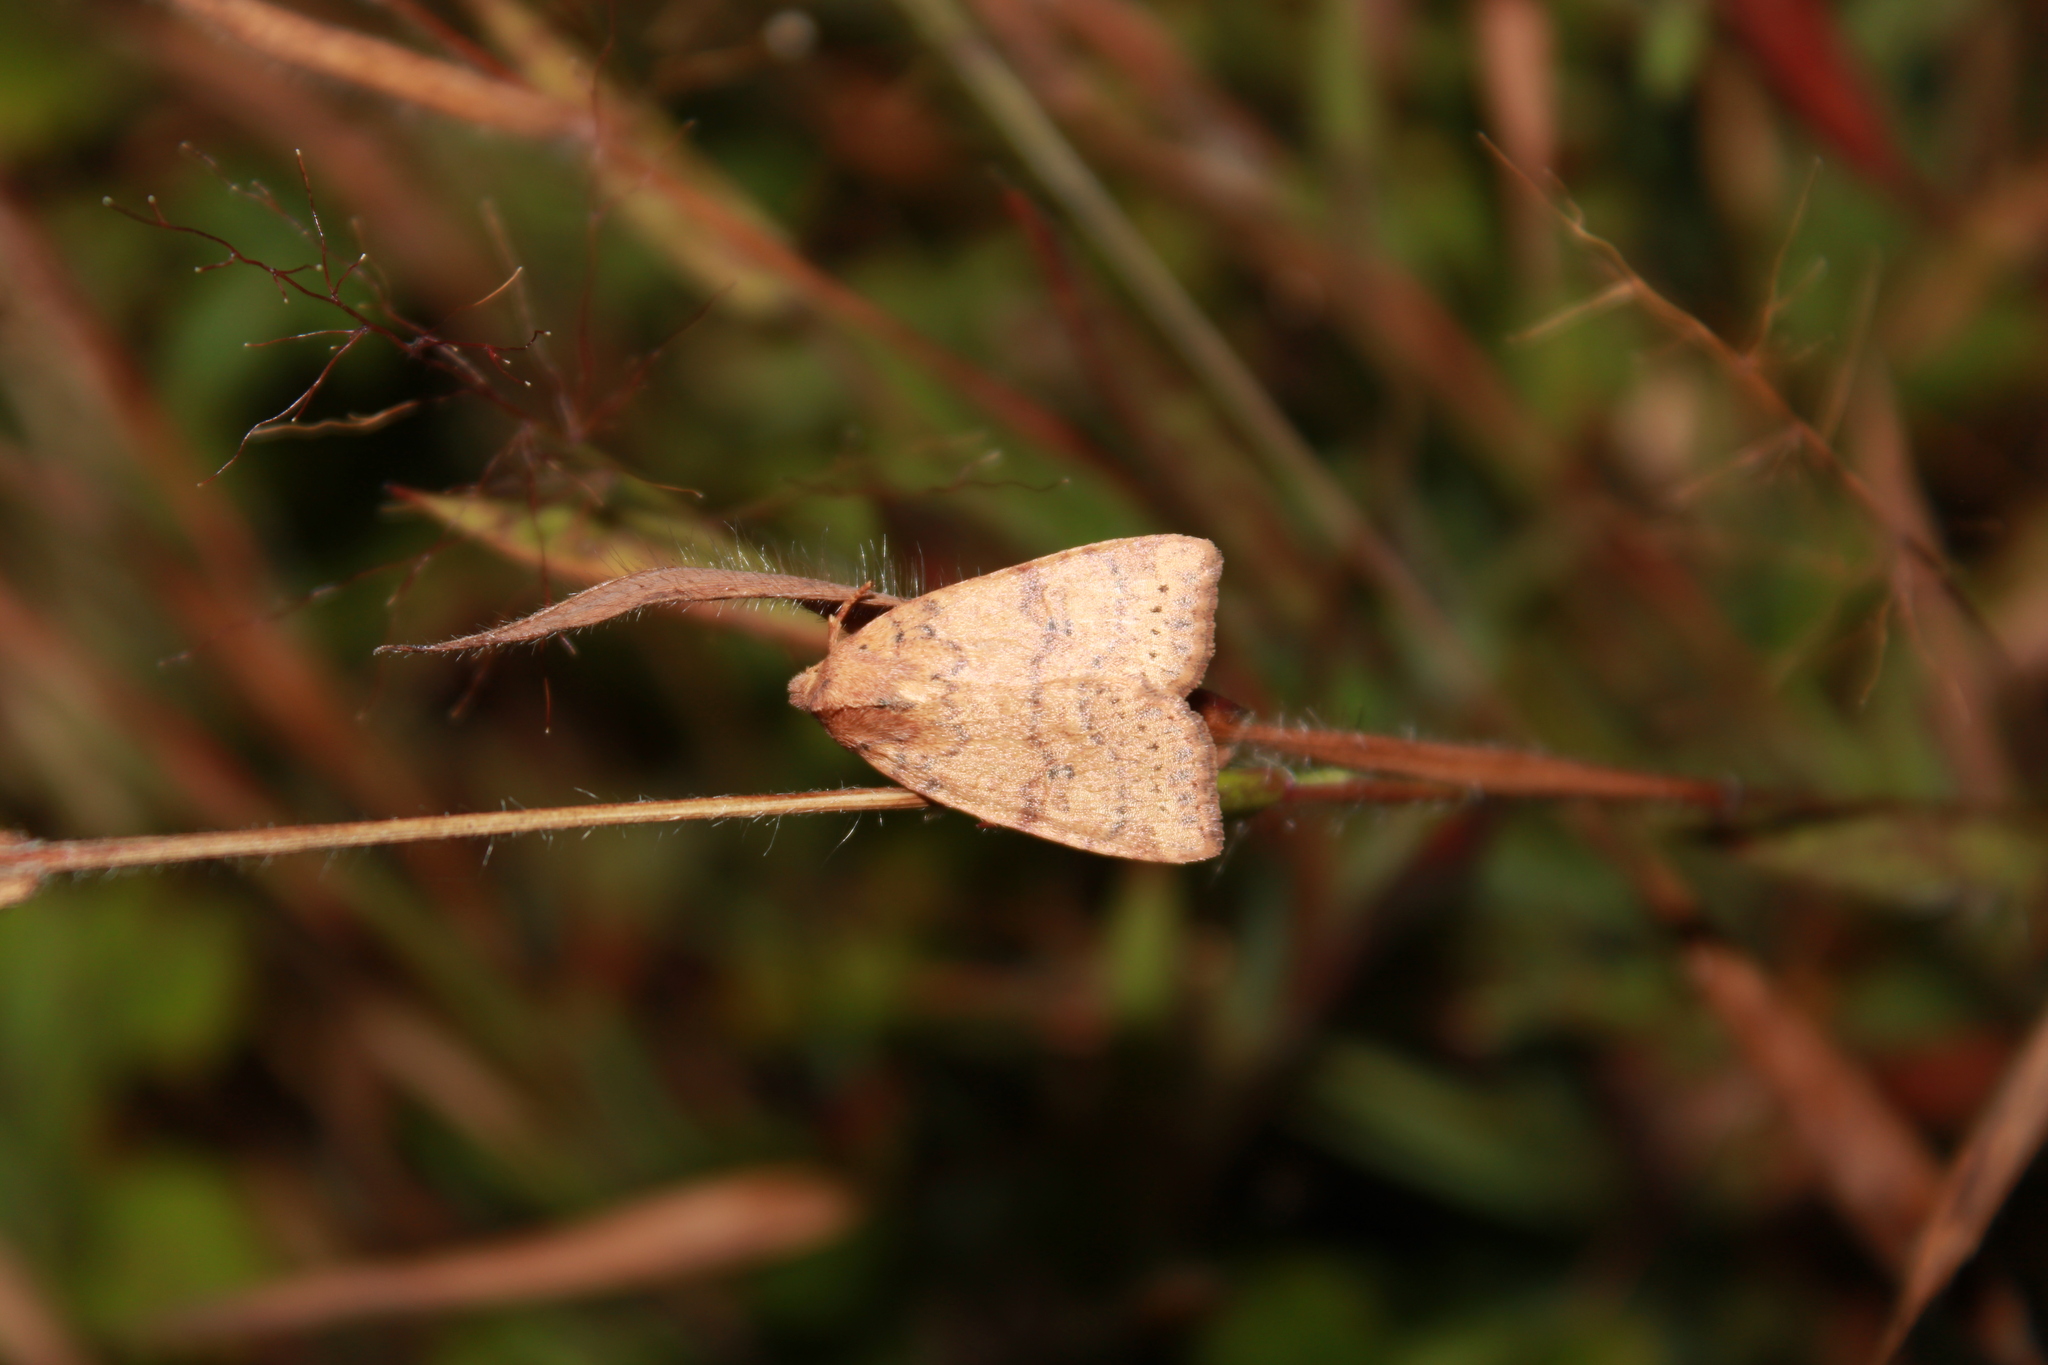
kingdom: Animalia
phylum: Arthropoda
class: Insecta
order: Lepidoptera
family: Noctuidae
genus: Anathix
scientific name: Anathix ralla
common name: Dotted sallow
